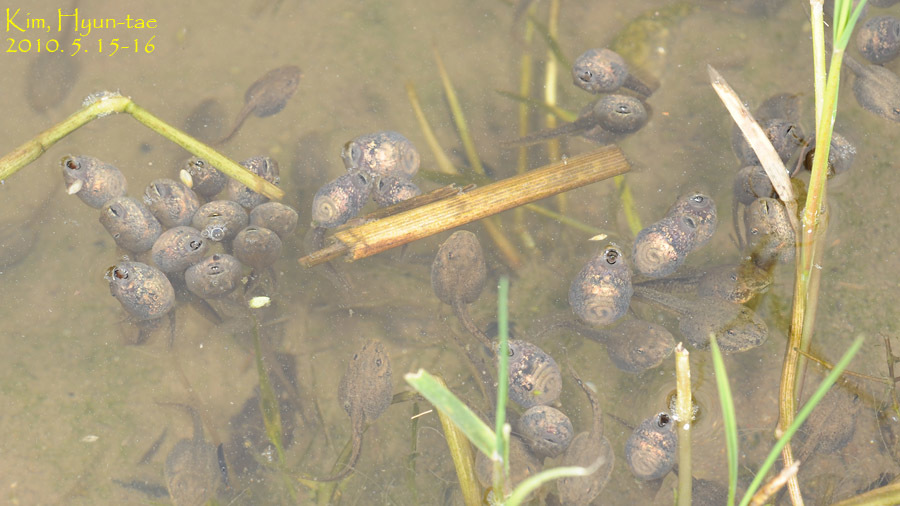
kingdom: Animalia
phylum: Chordata
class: Amphibia
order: Anura
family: Ranidae
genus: Rana
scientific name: Rana uenoi
